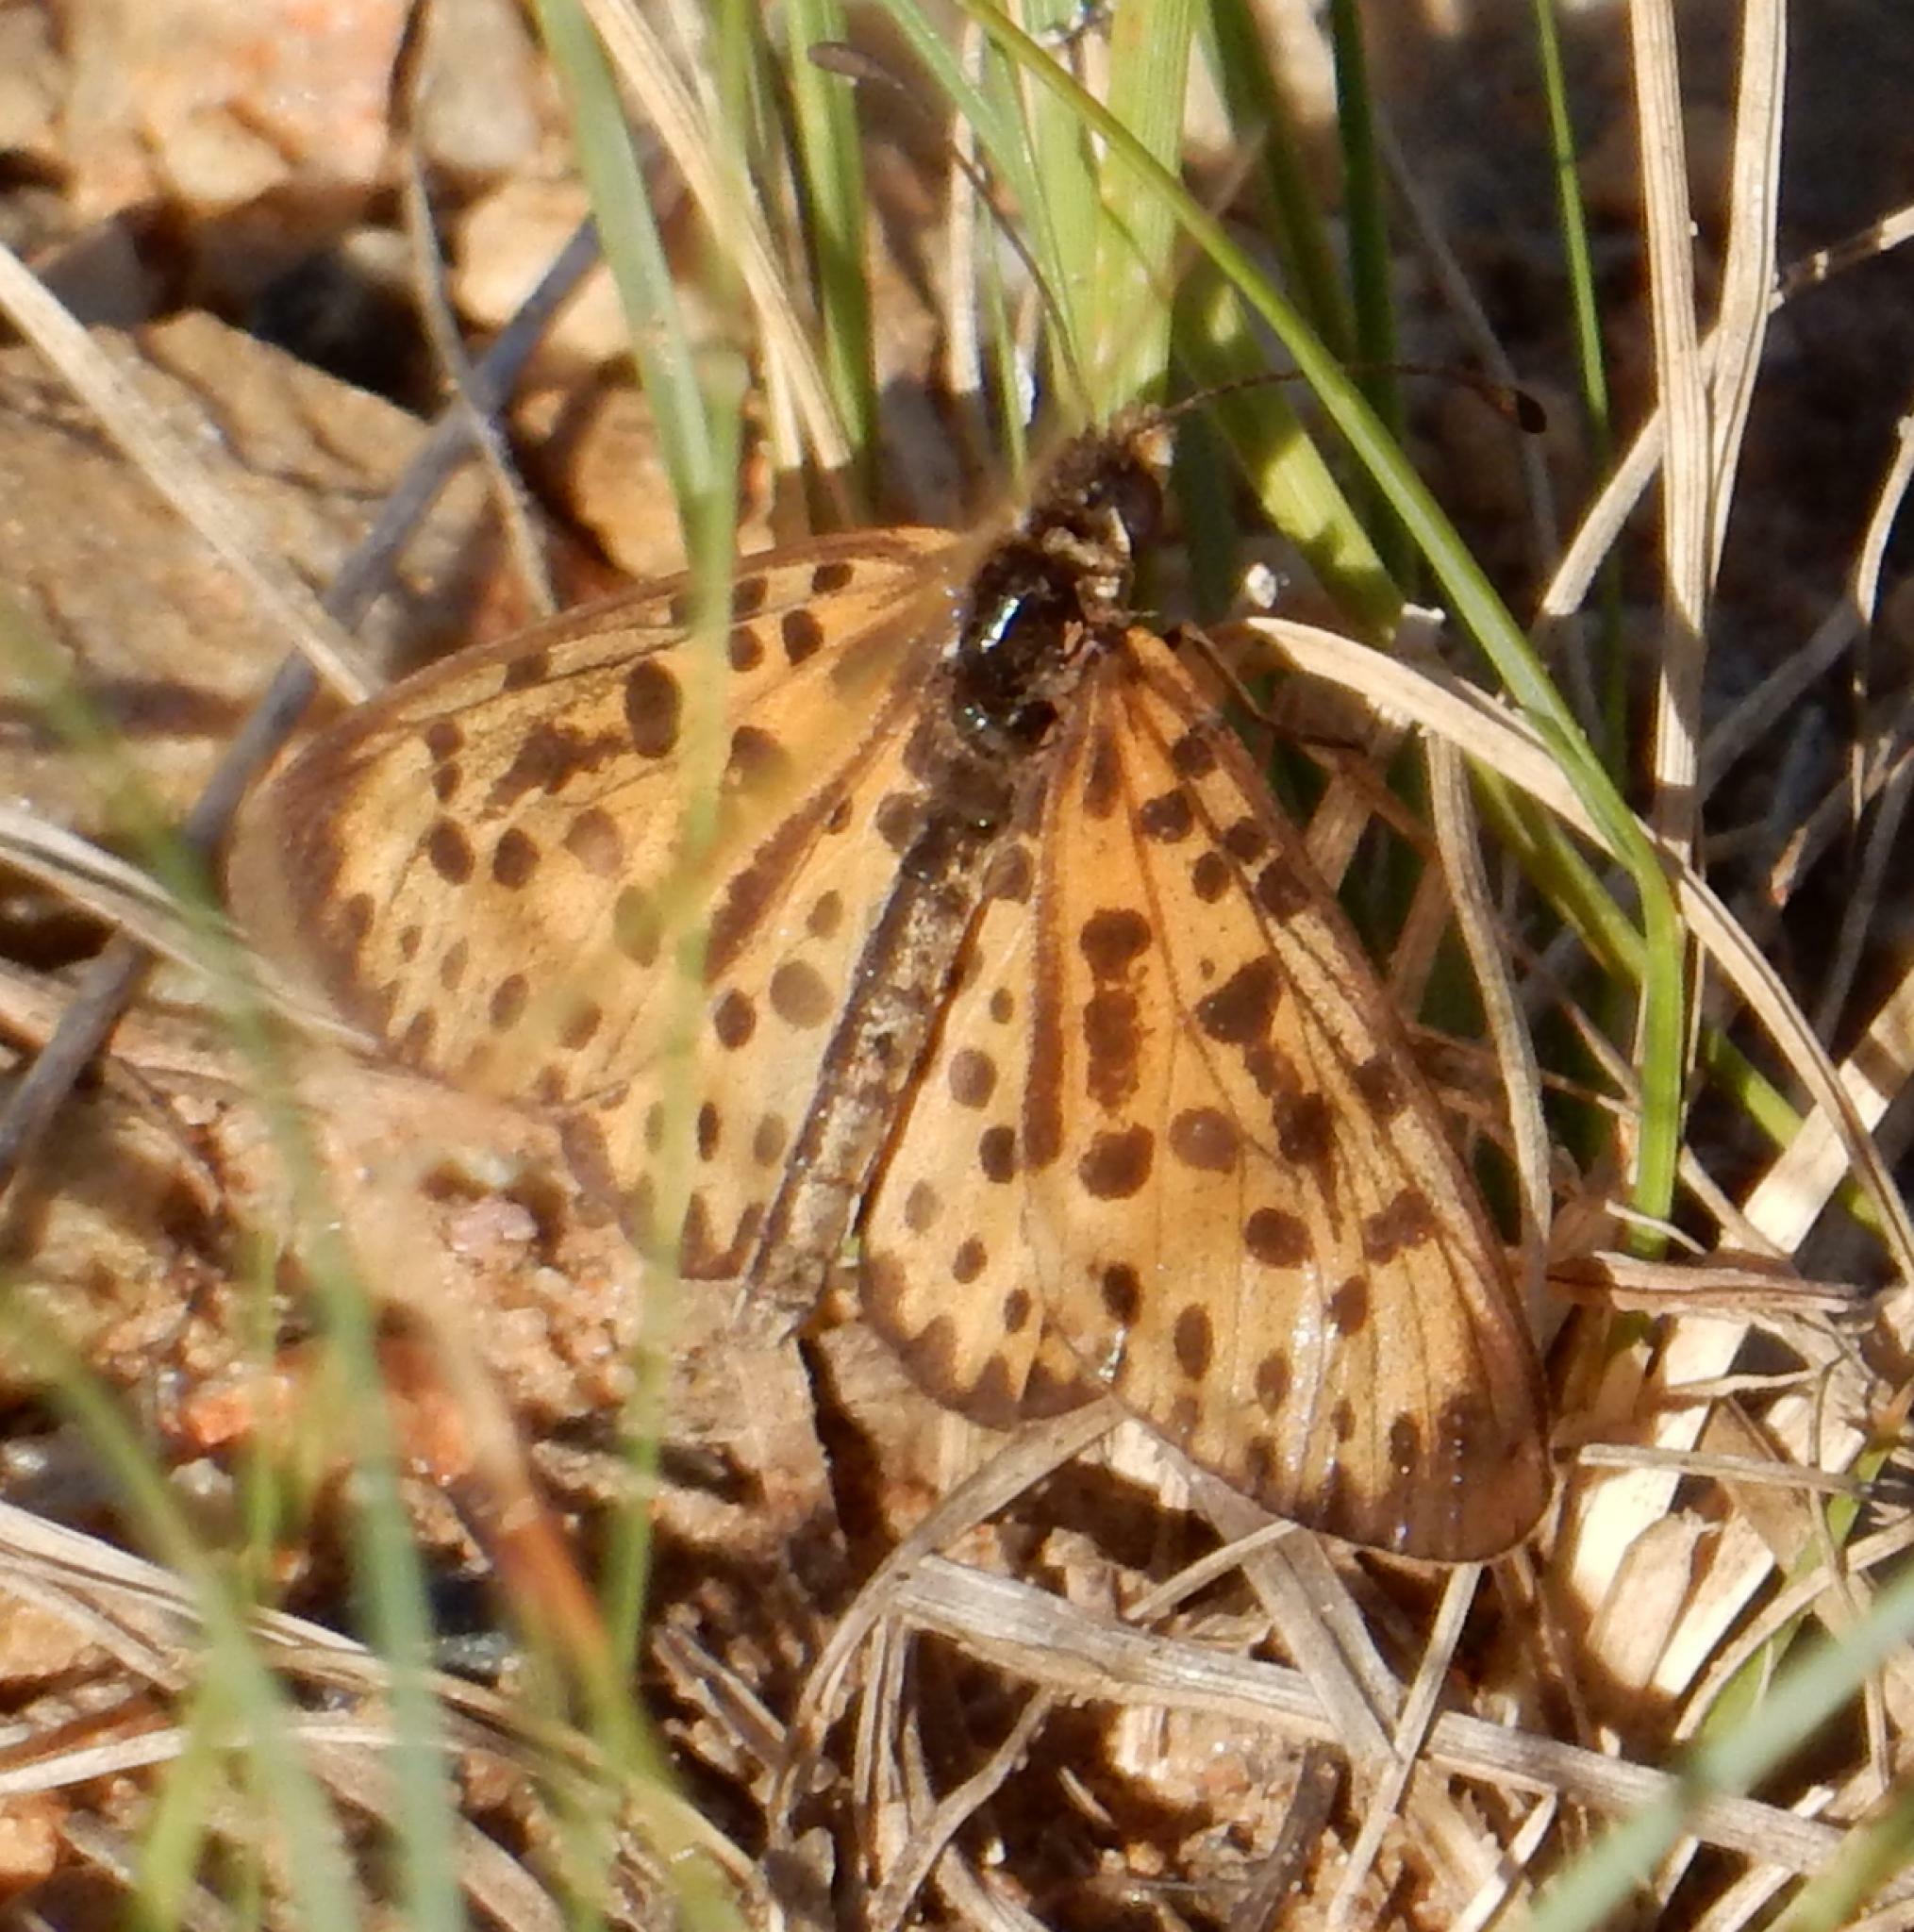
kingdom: Animalia
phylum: Arthropoda
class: Insecta
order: Lepidoptera
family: Nymphalidae
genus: Pardopsis
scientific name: Pardopsis punctatissima
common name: Polka dot
